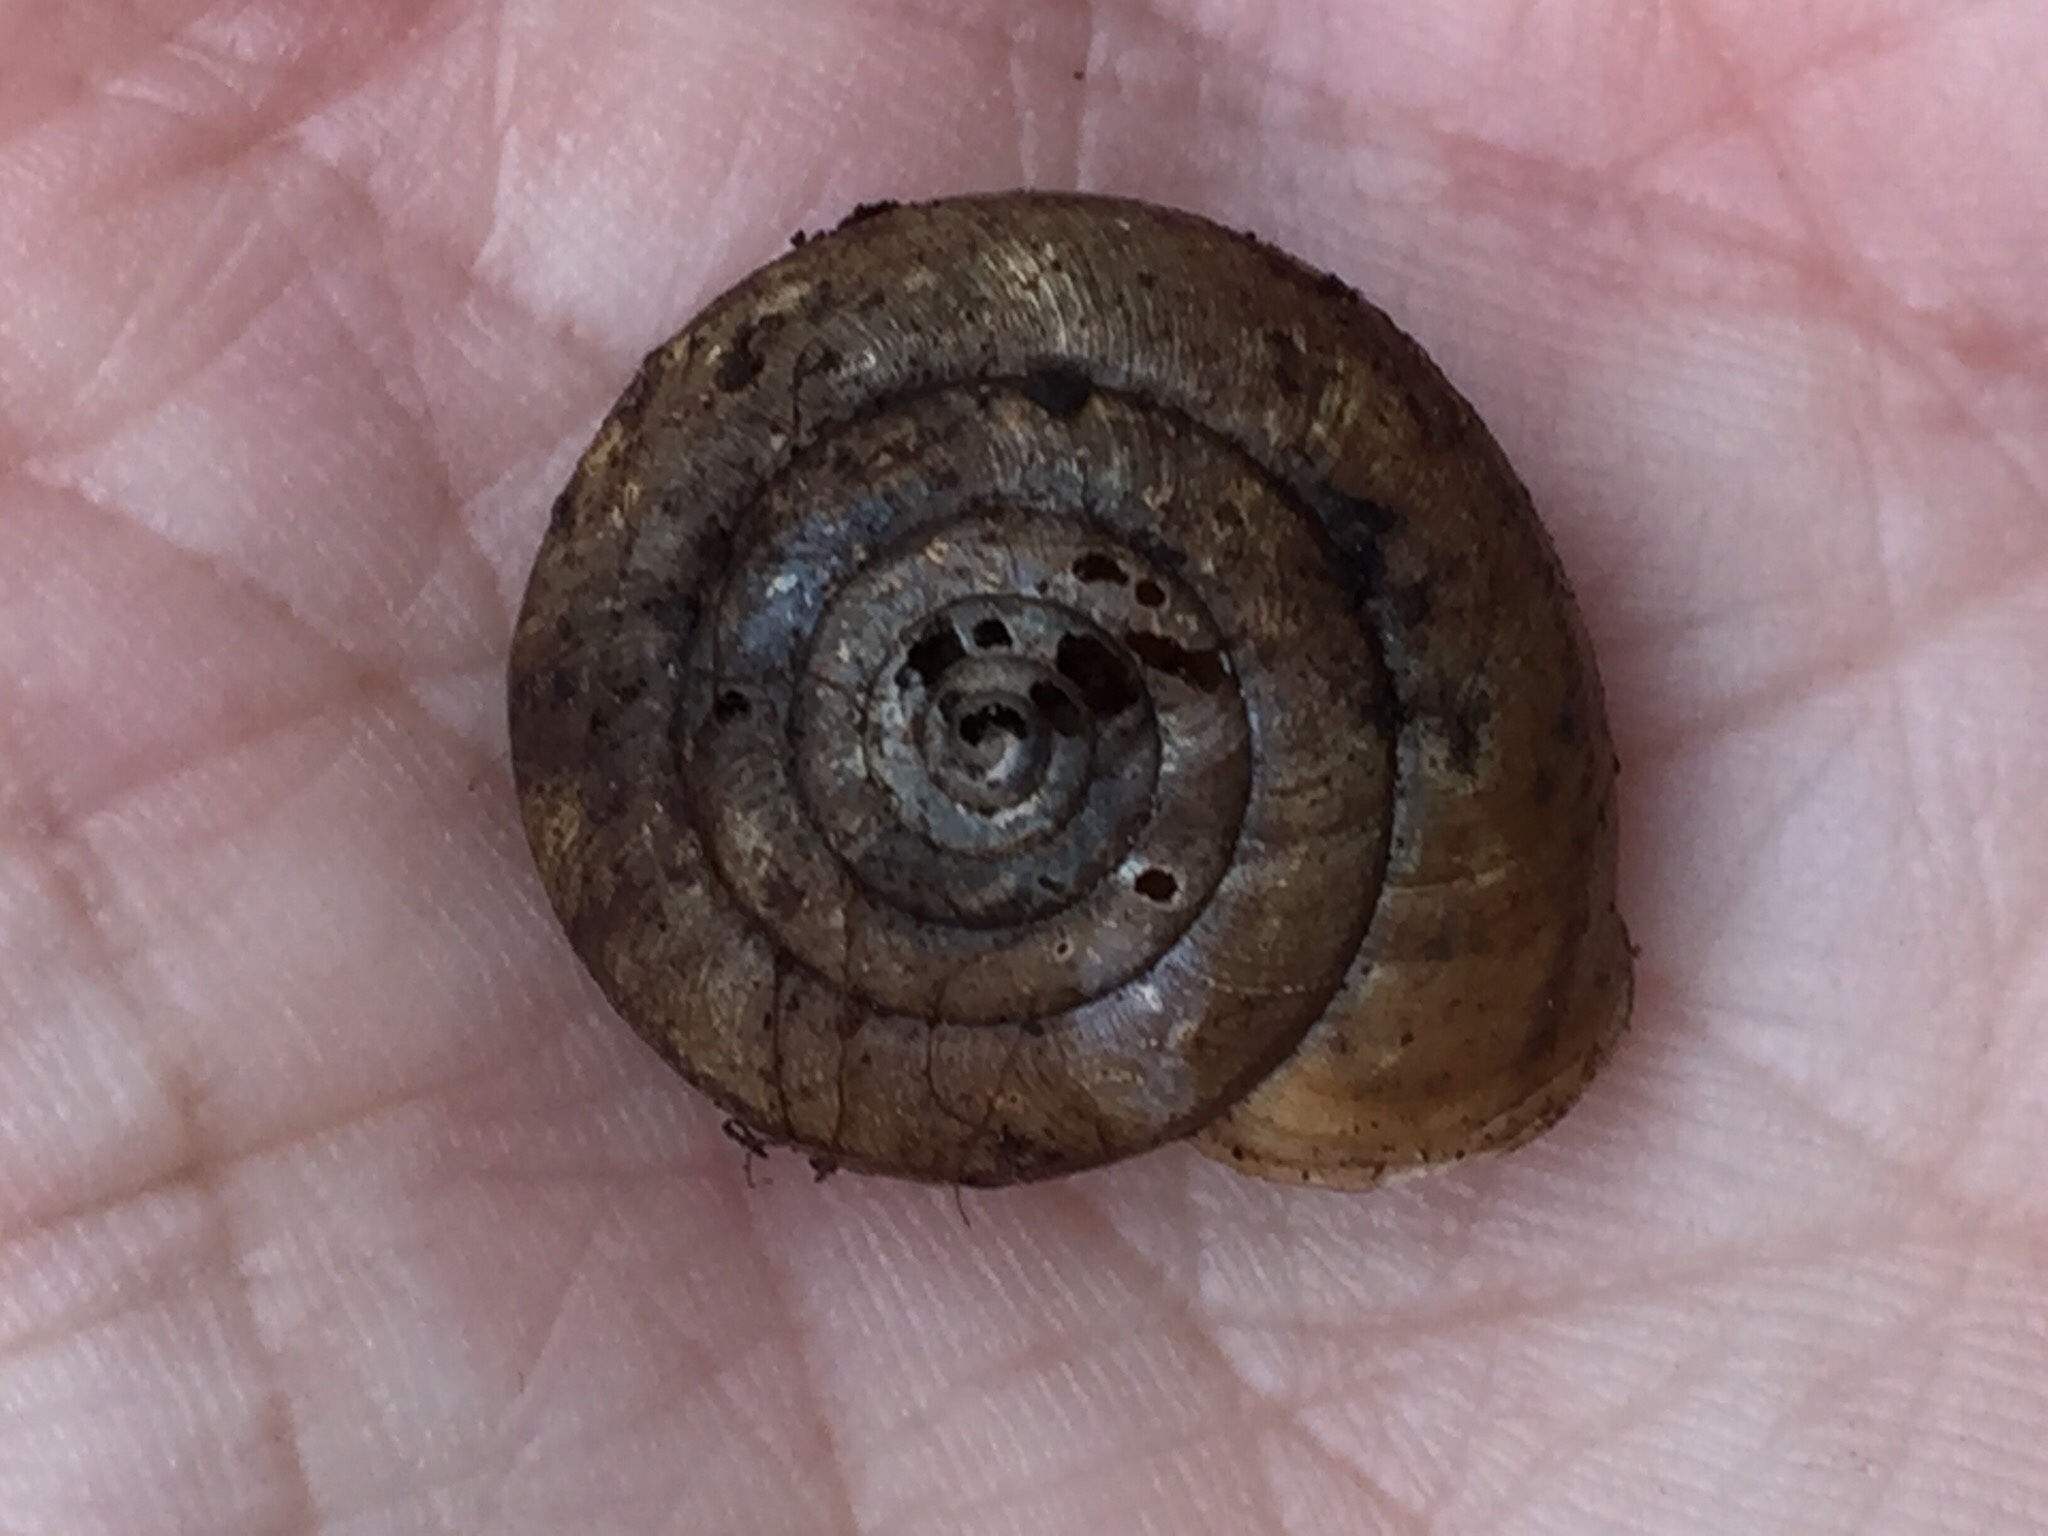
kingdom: Animalia
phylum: Mollusca
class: Gastropoda
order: Stylommatophora
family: Xanthonychidae
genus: Helminthoglypta
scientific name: Helminthoglypta contracostae
